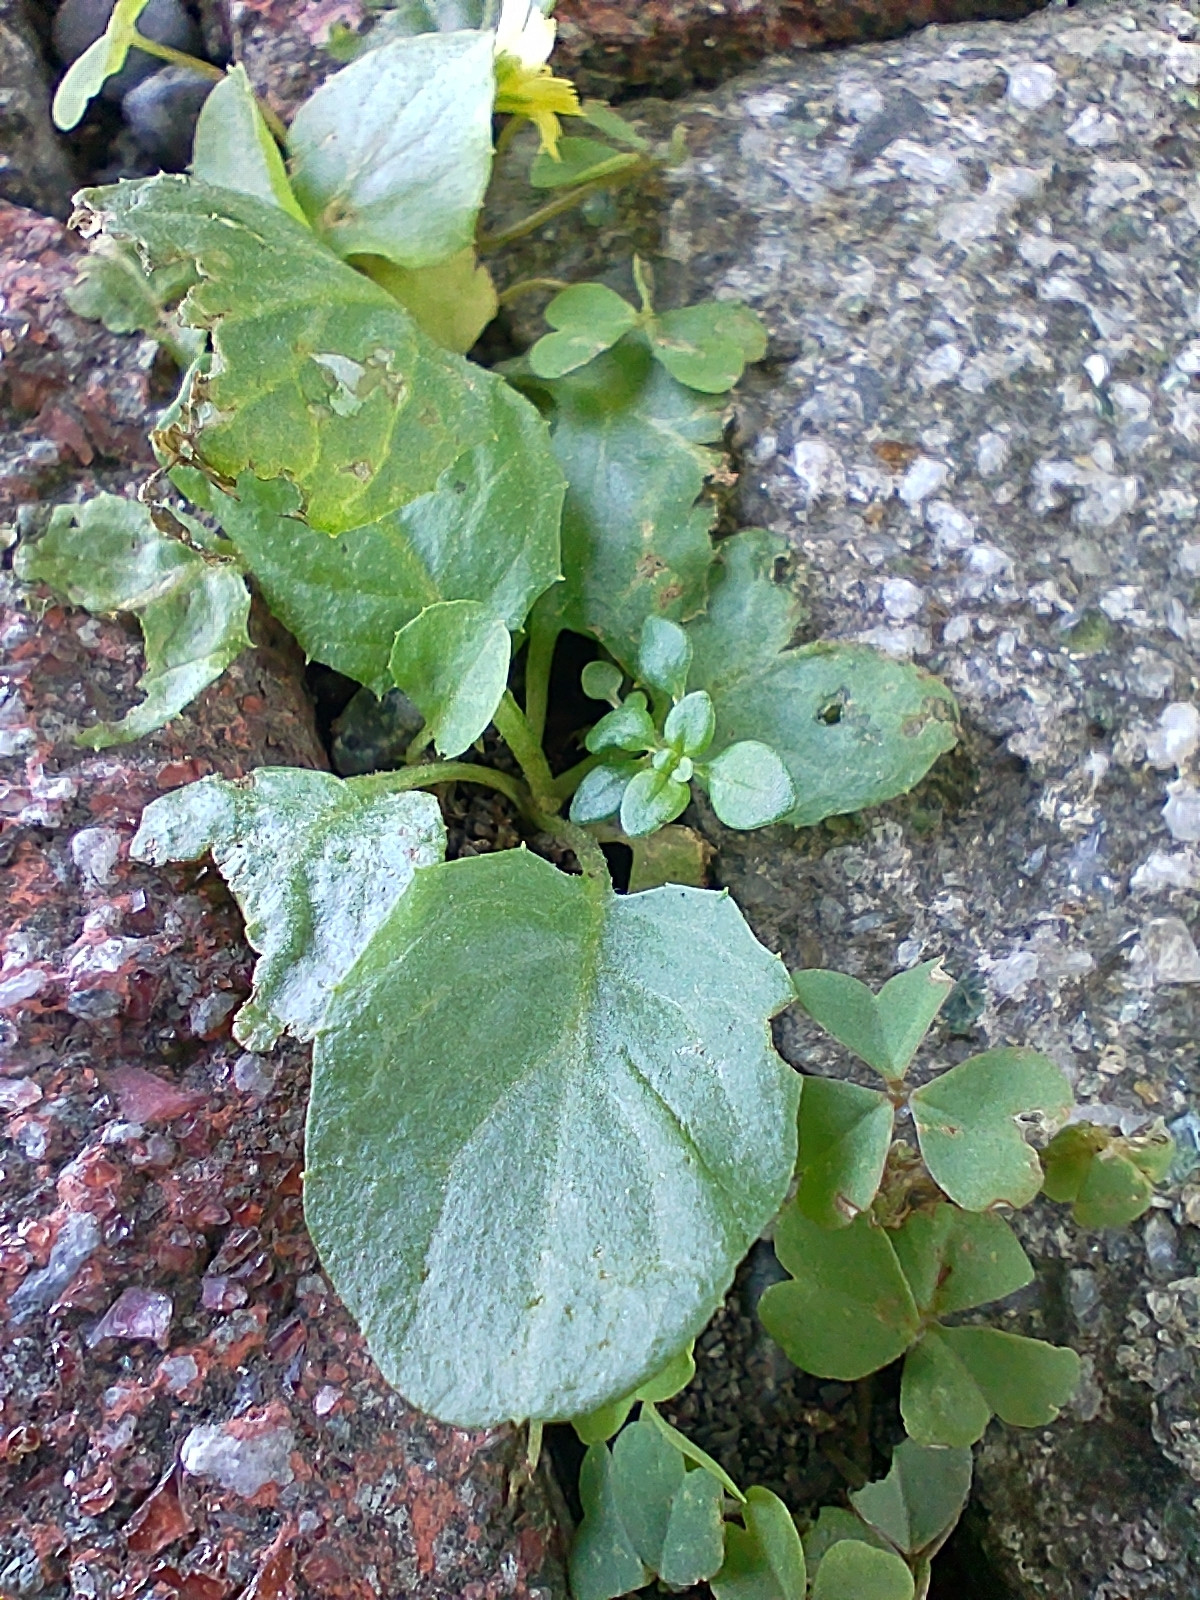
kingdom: Plantae
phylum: Tracheophyta
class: Magnoliopsida
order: Asterales
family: Asteraceae
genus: Youngia
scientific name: Youngia japonica
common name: Oriental false hawksbeard
